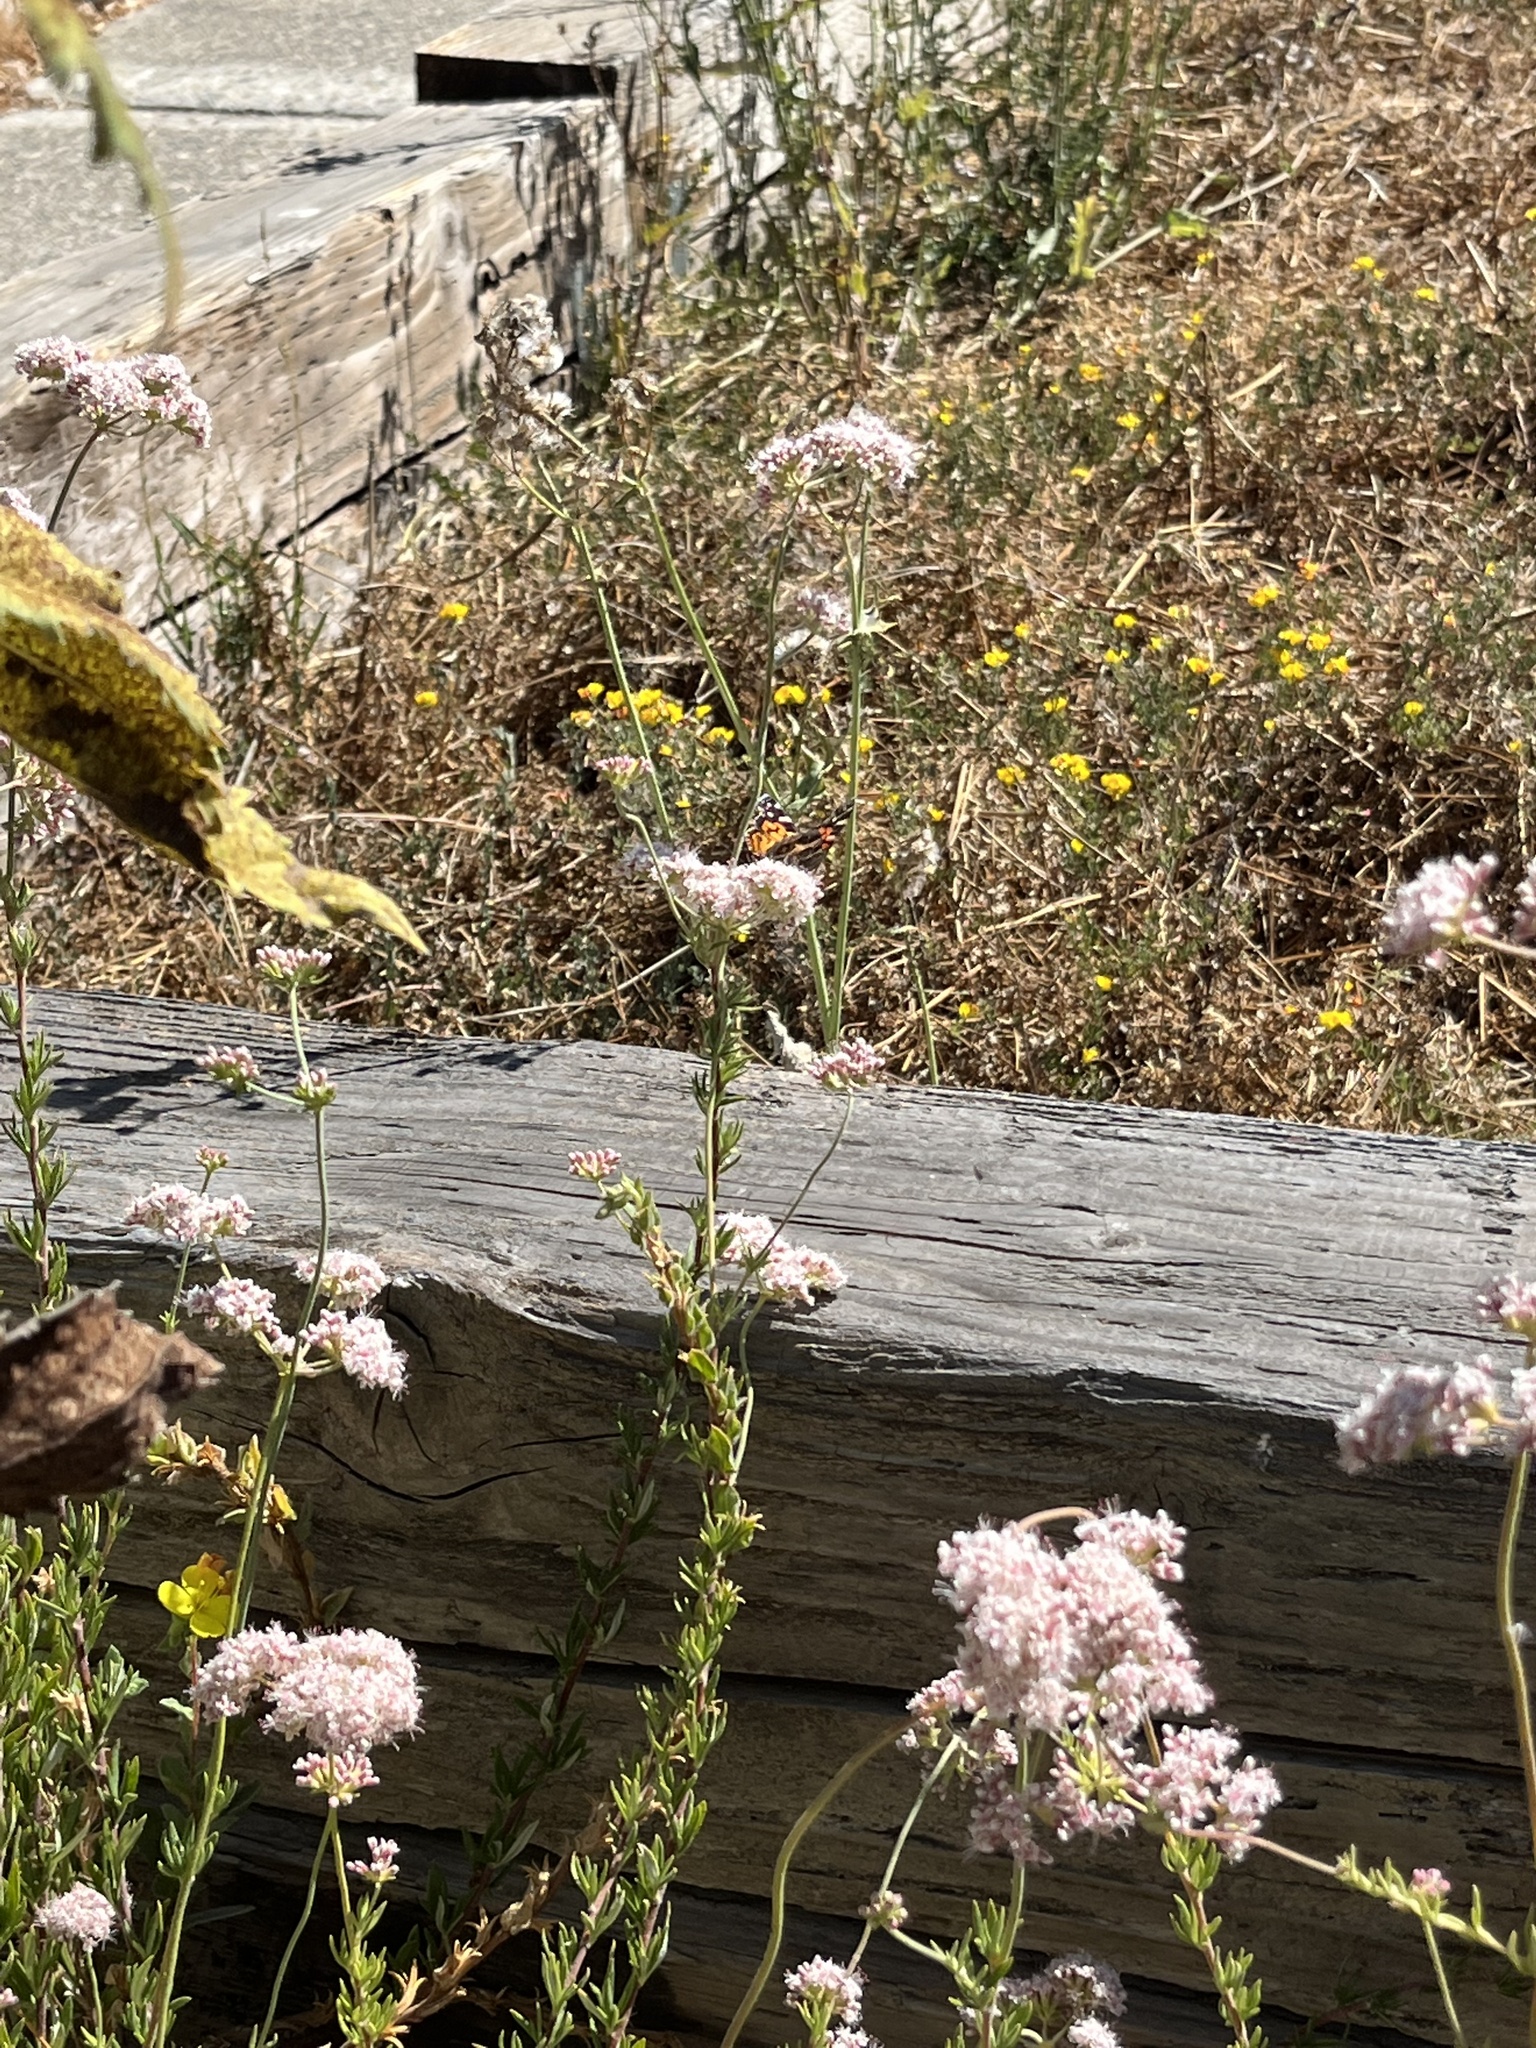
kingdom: Animalia
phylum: Arthropoda
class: Insecta
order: Lepidoptera
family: Nymphalidae
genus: Vanessa
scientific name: Vanessa virginiensis
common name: American lady
